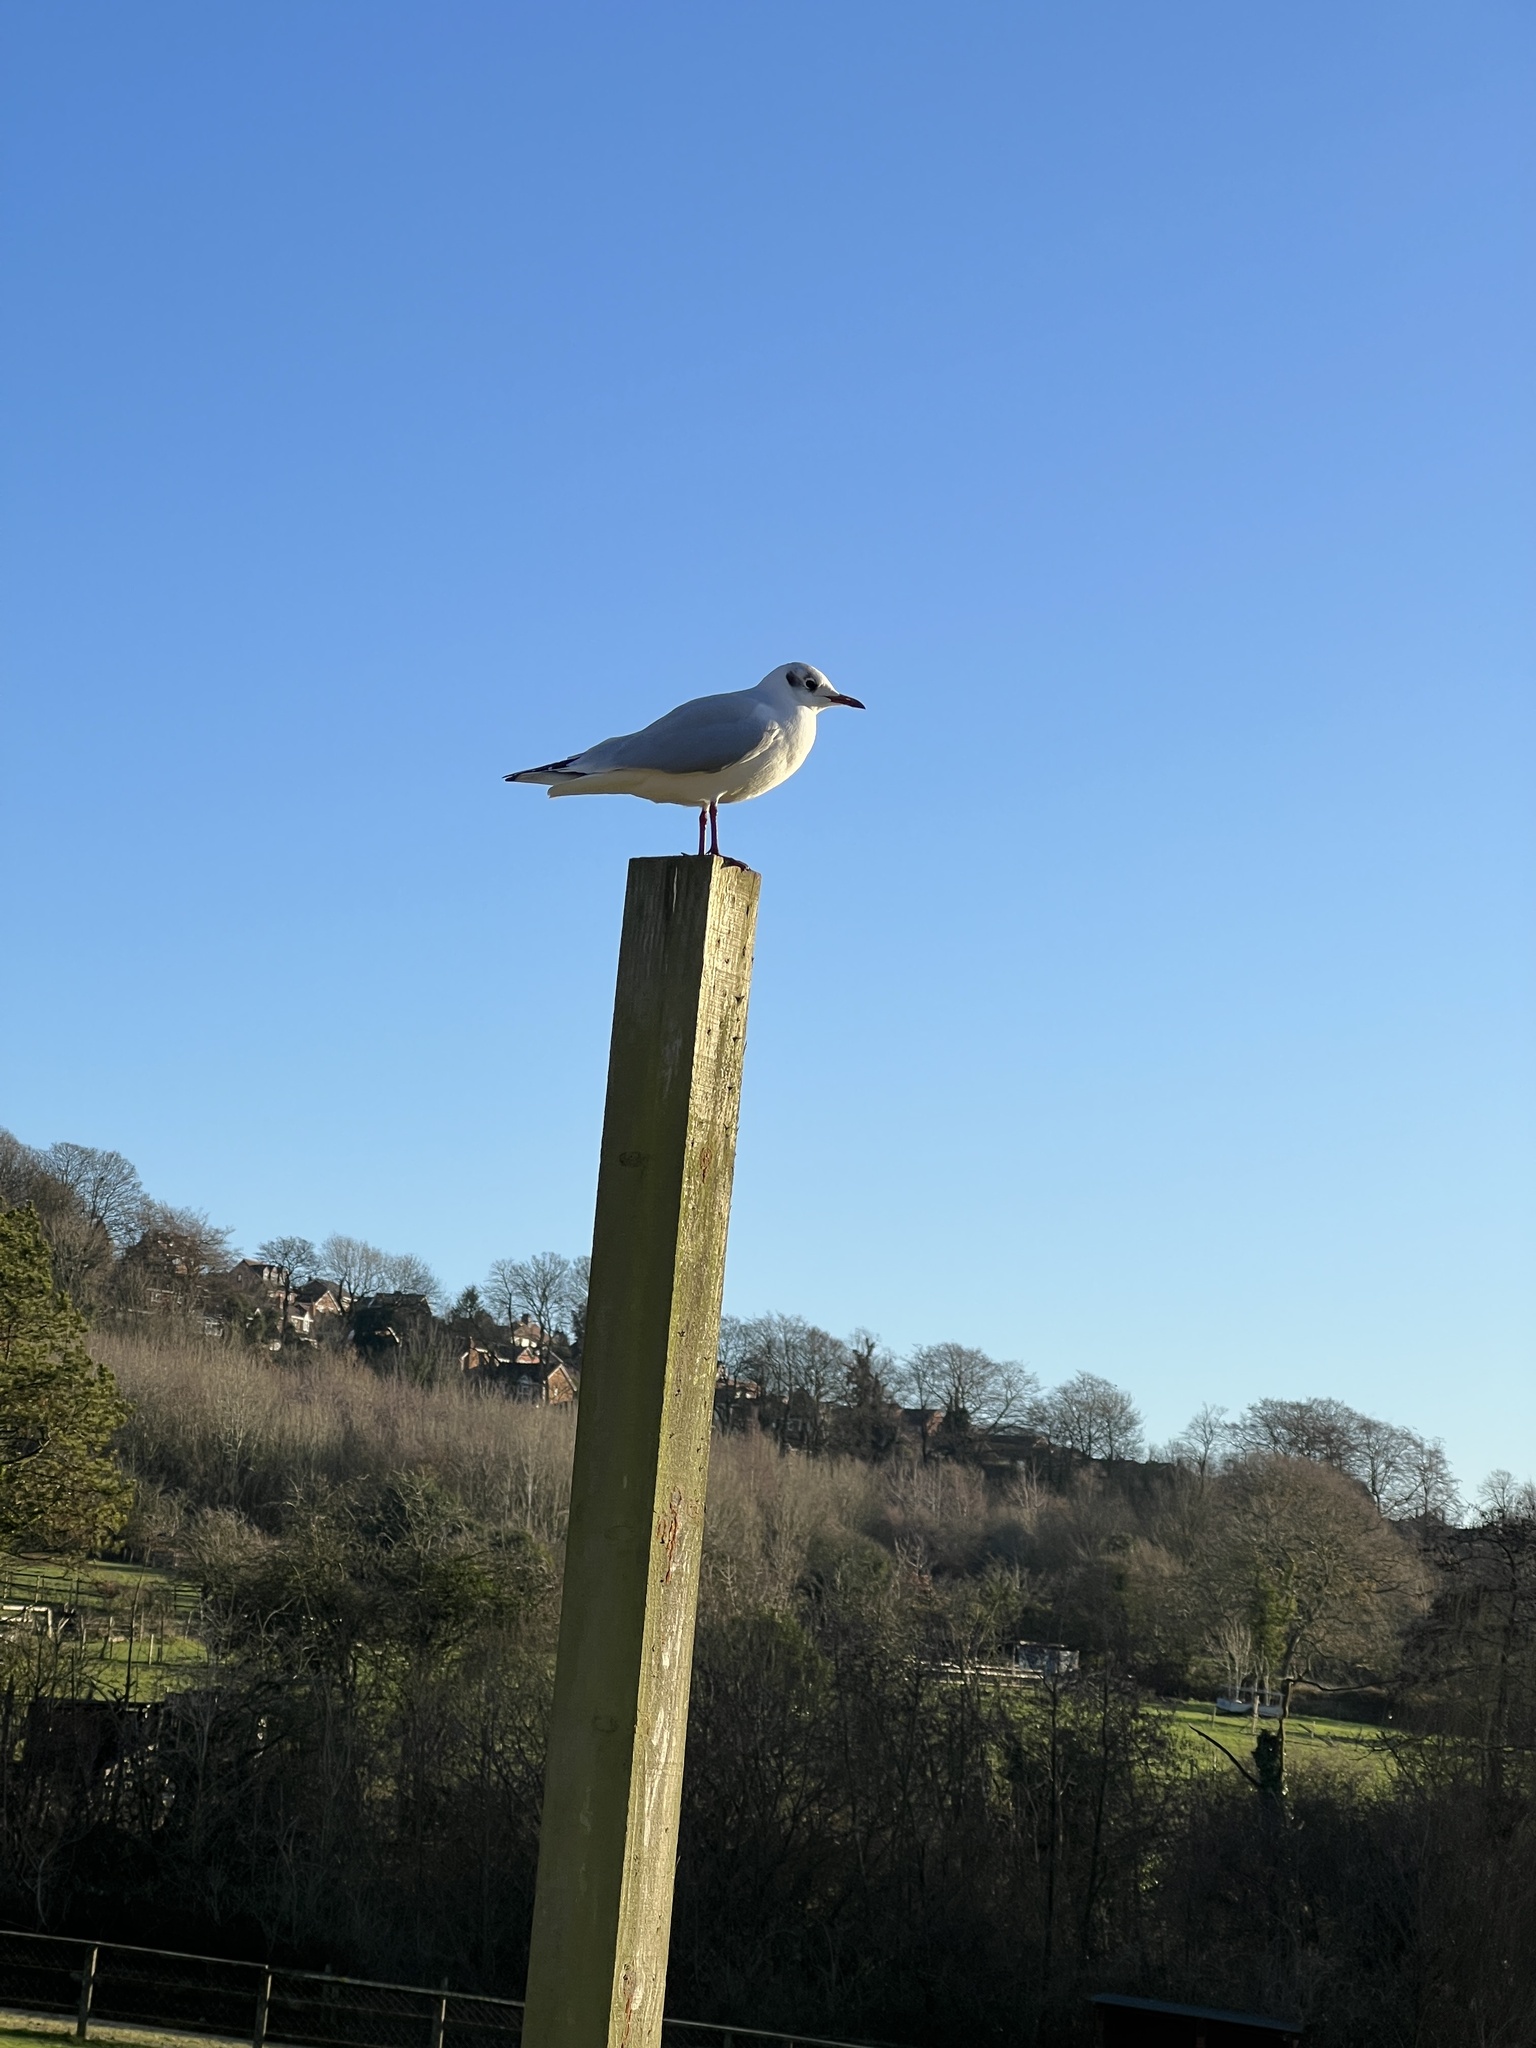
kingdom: Animalia
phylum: Chordata
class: Aves
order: Charadriiformes
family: Laridae
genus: Chroicocephalus
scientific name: Chroicocephalus ridibundus
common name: Black-headed gull
